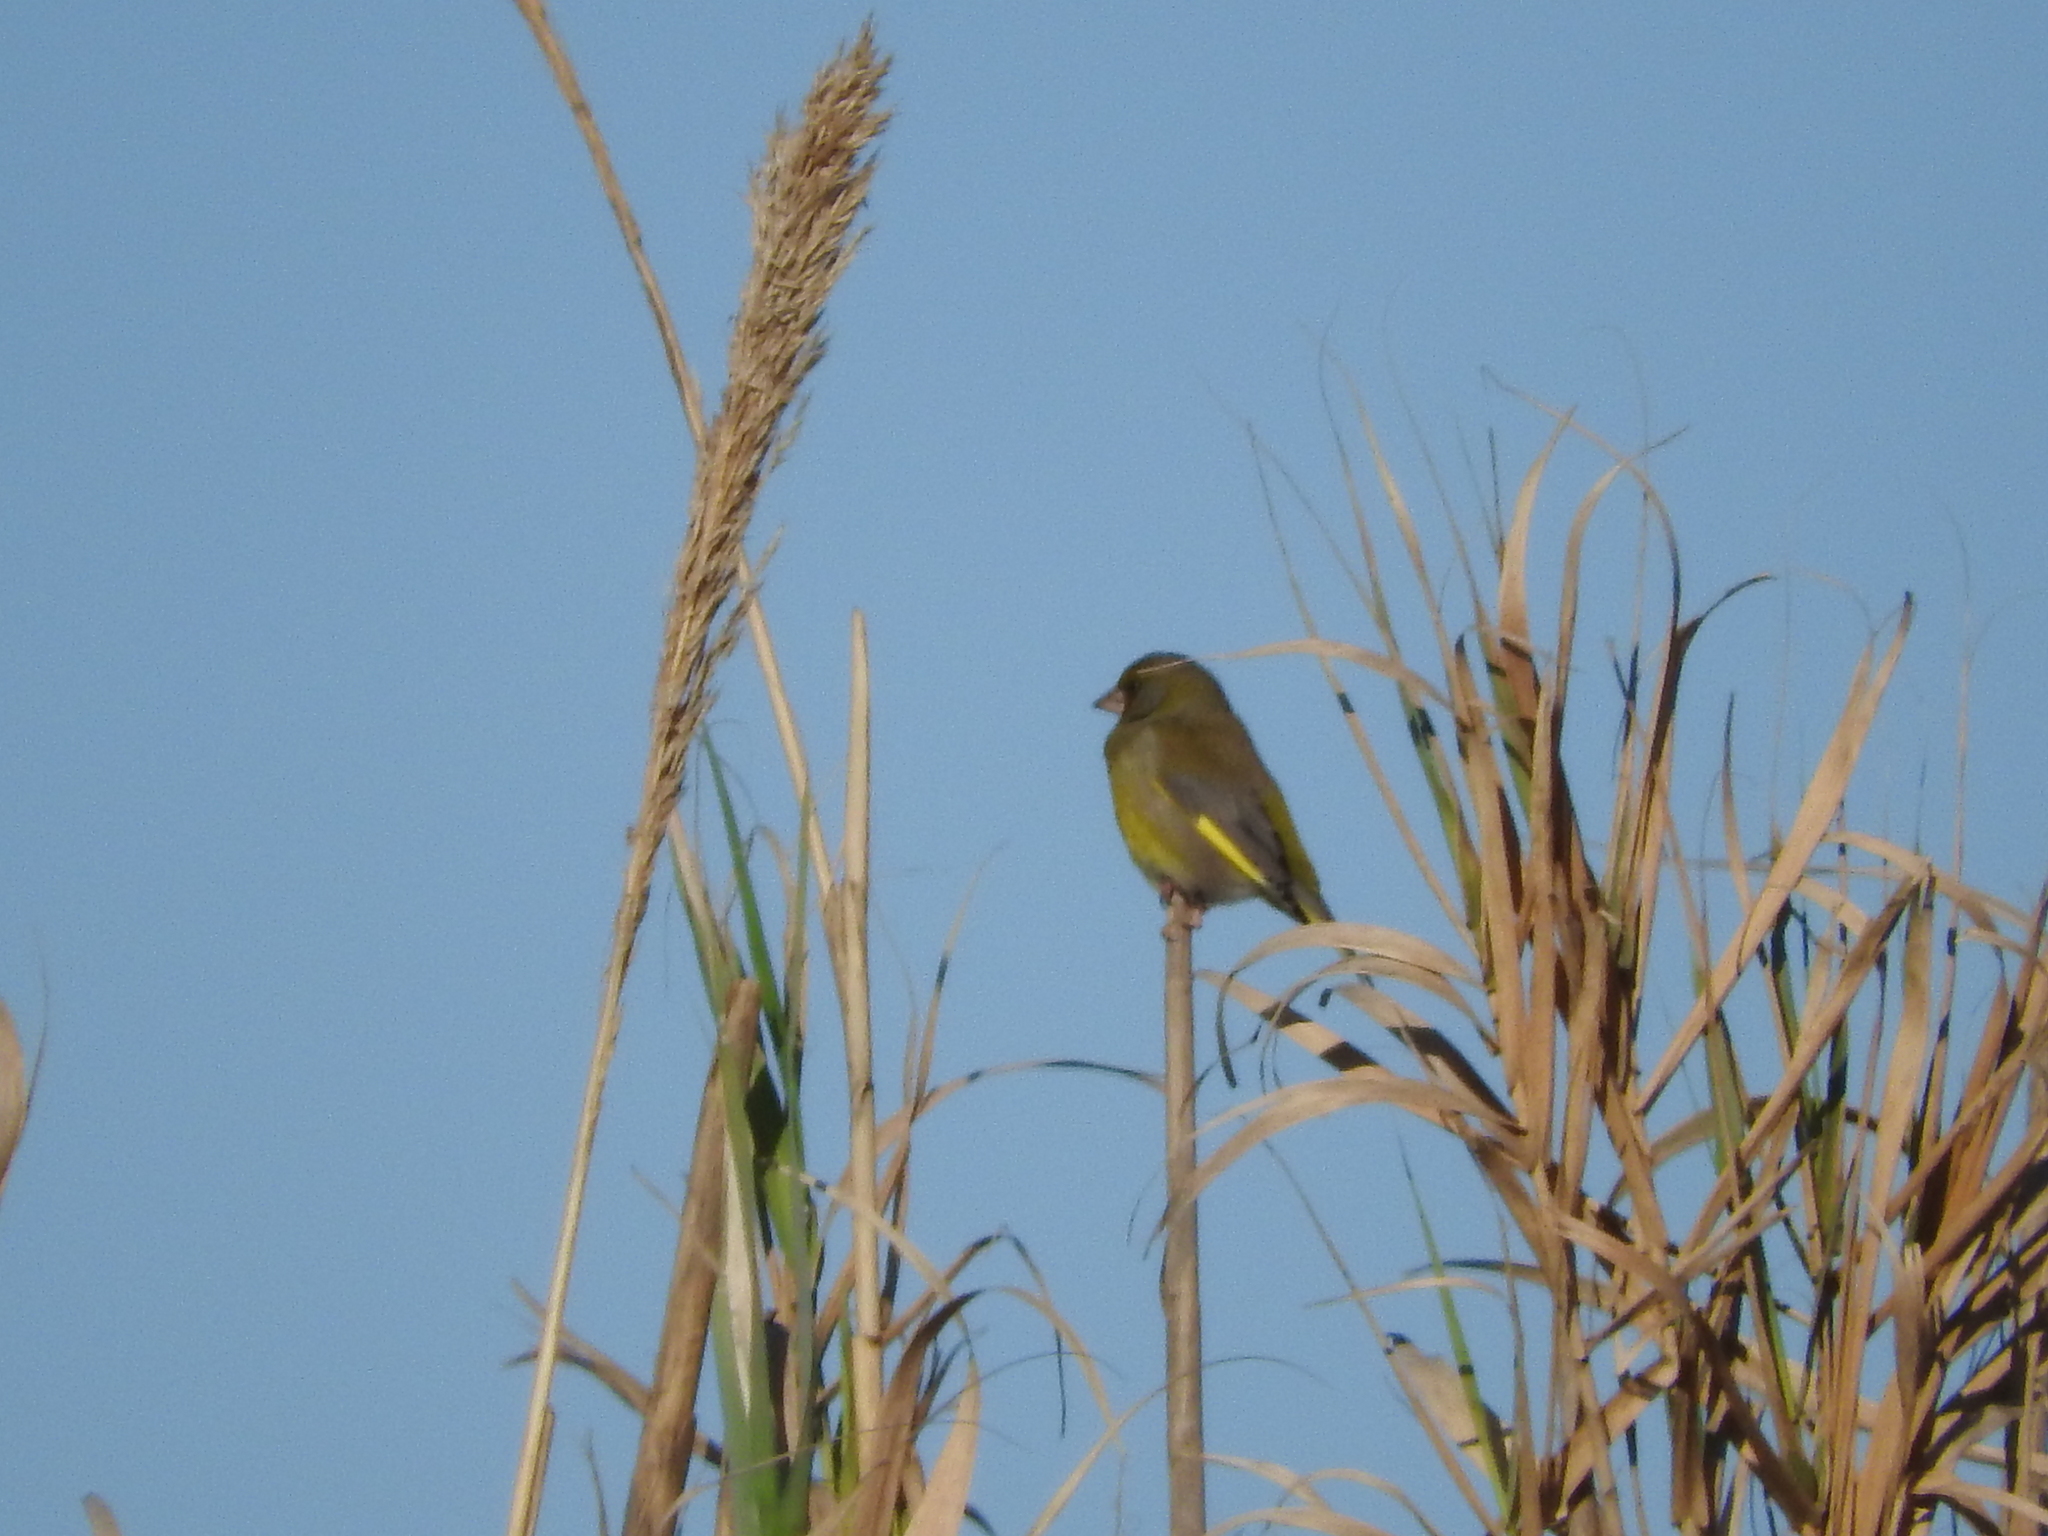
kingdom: Plantae
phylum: Tracheophyta
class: Liliopsida
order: Poales
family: Poaceae
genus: Chloris
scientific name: Chloris chloris
